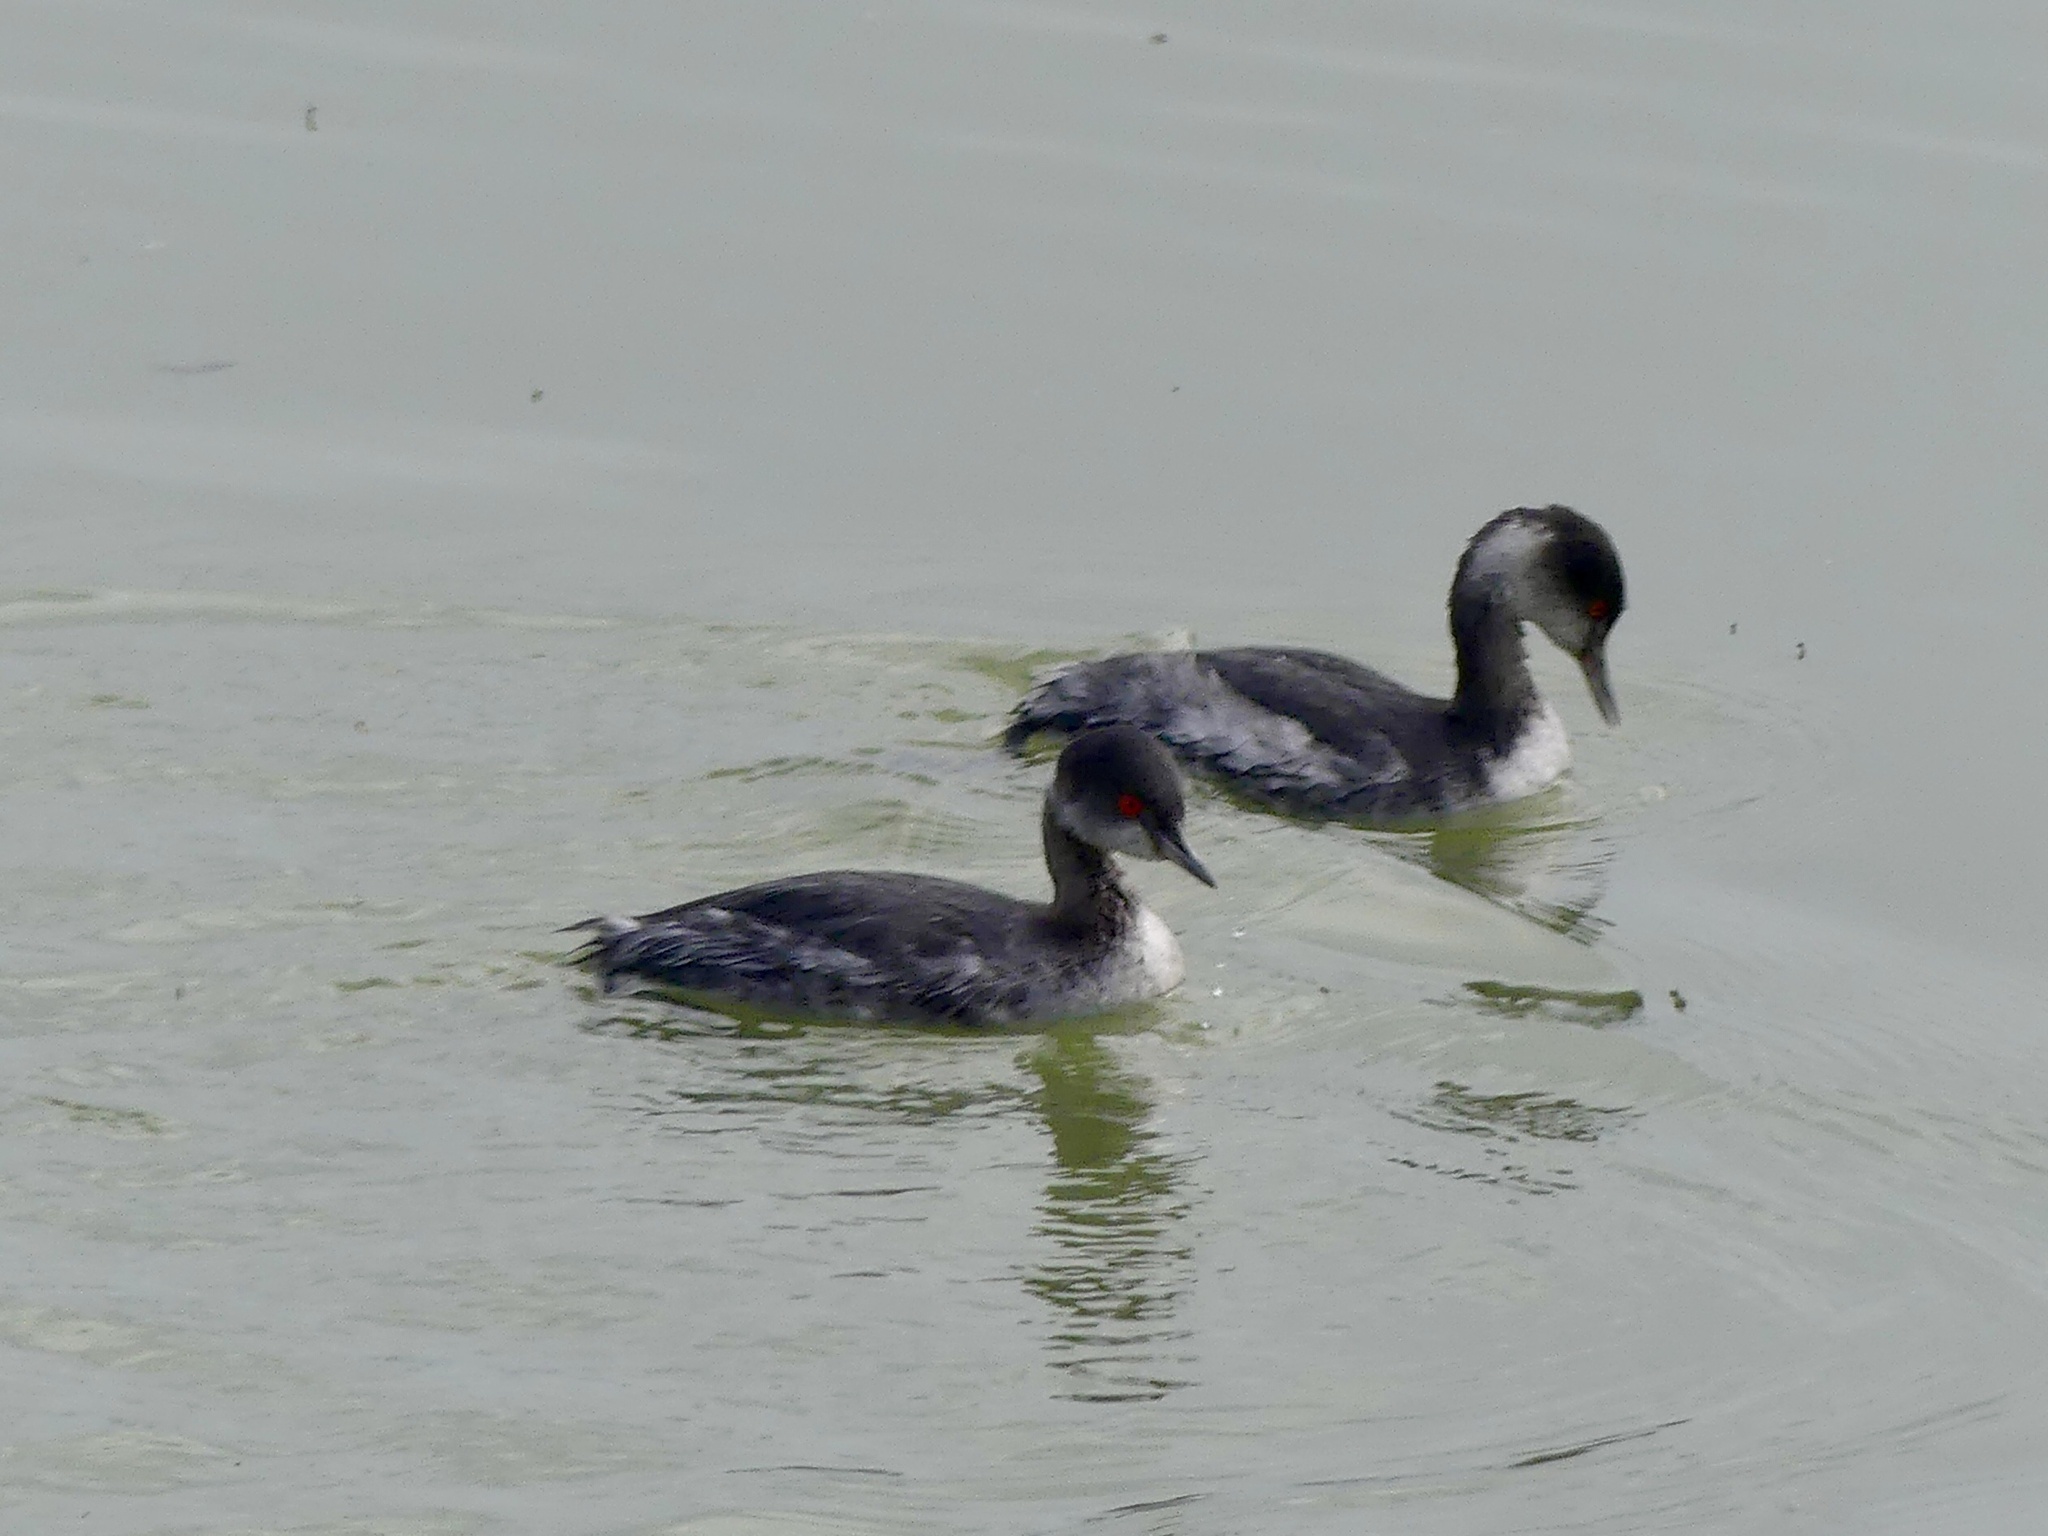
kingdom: Animalia
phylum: Chordata
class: Aves
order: Podicipediformes
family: Podicipedidae
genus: Podiceps
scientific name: Podiceps nigricollis
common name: Black-necked grebe
